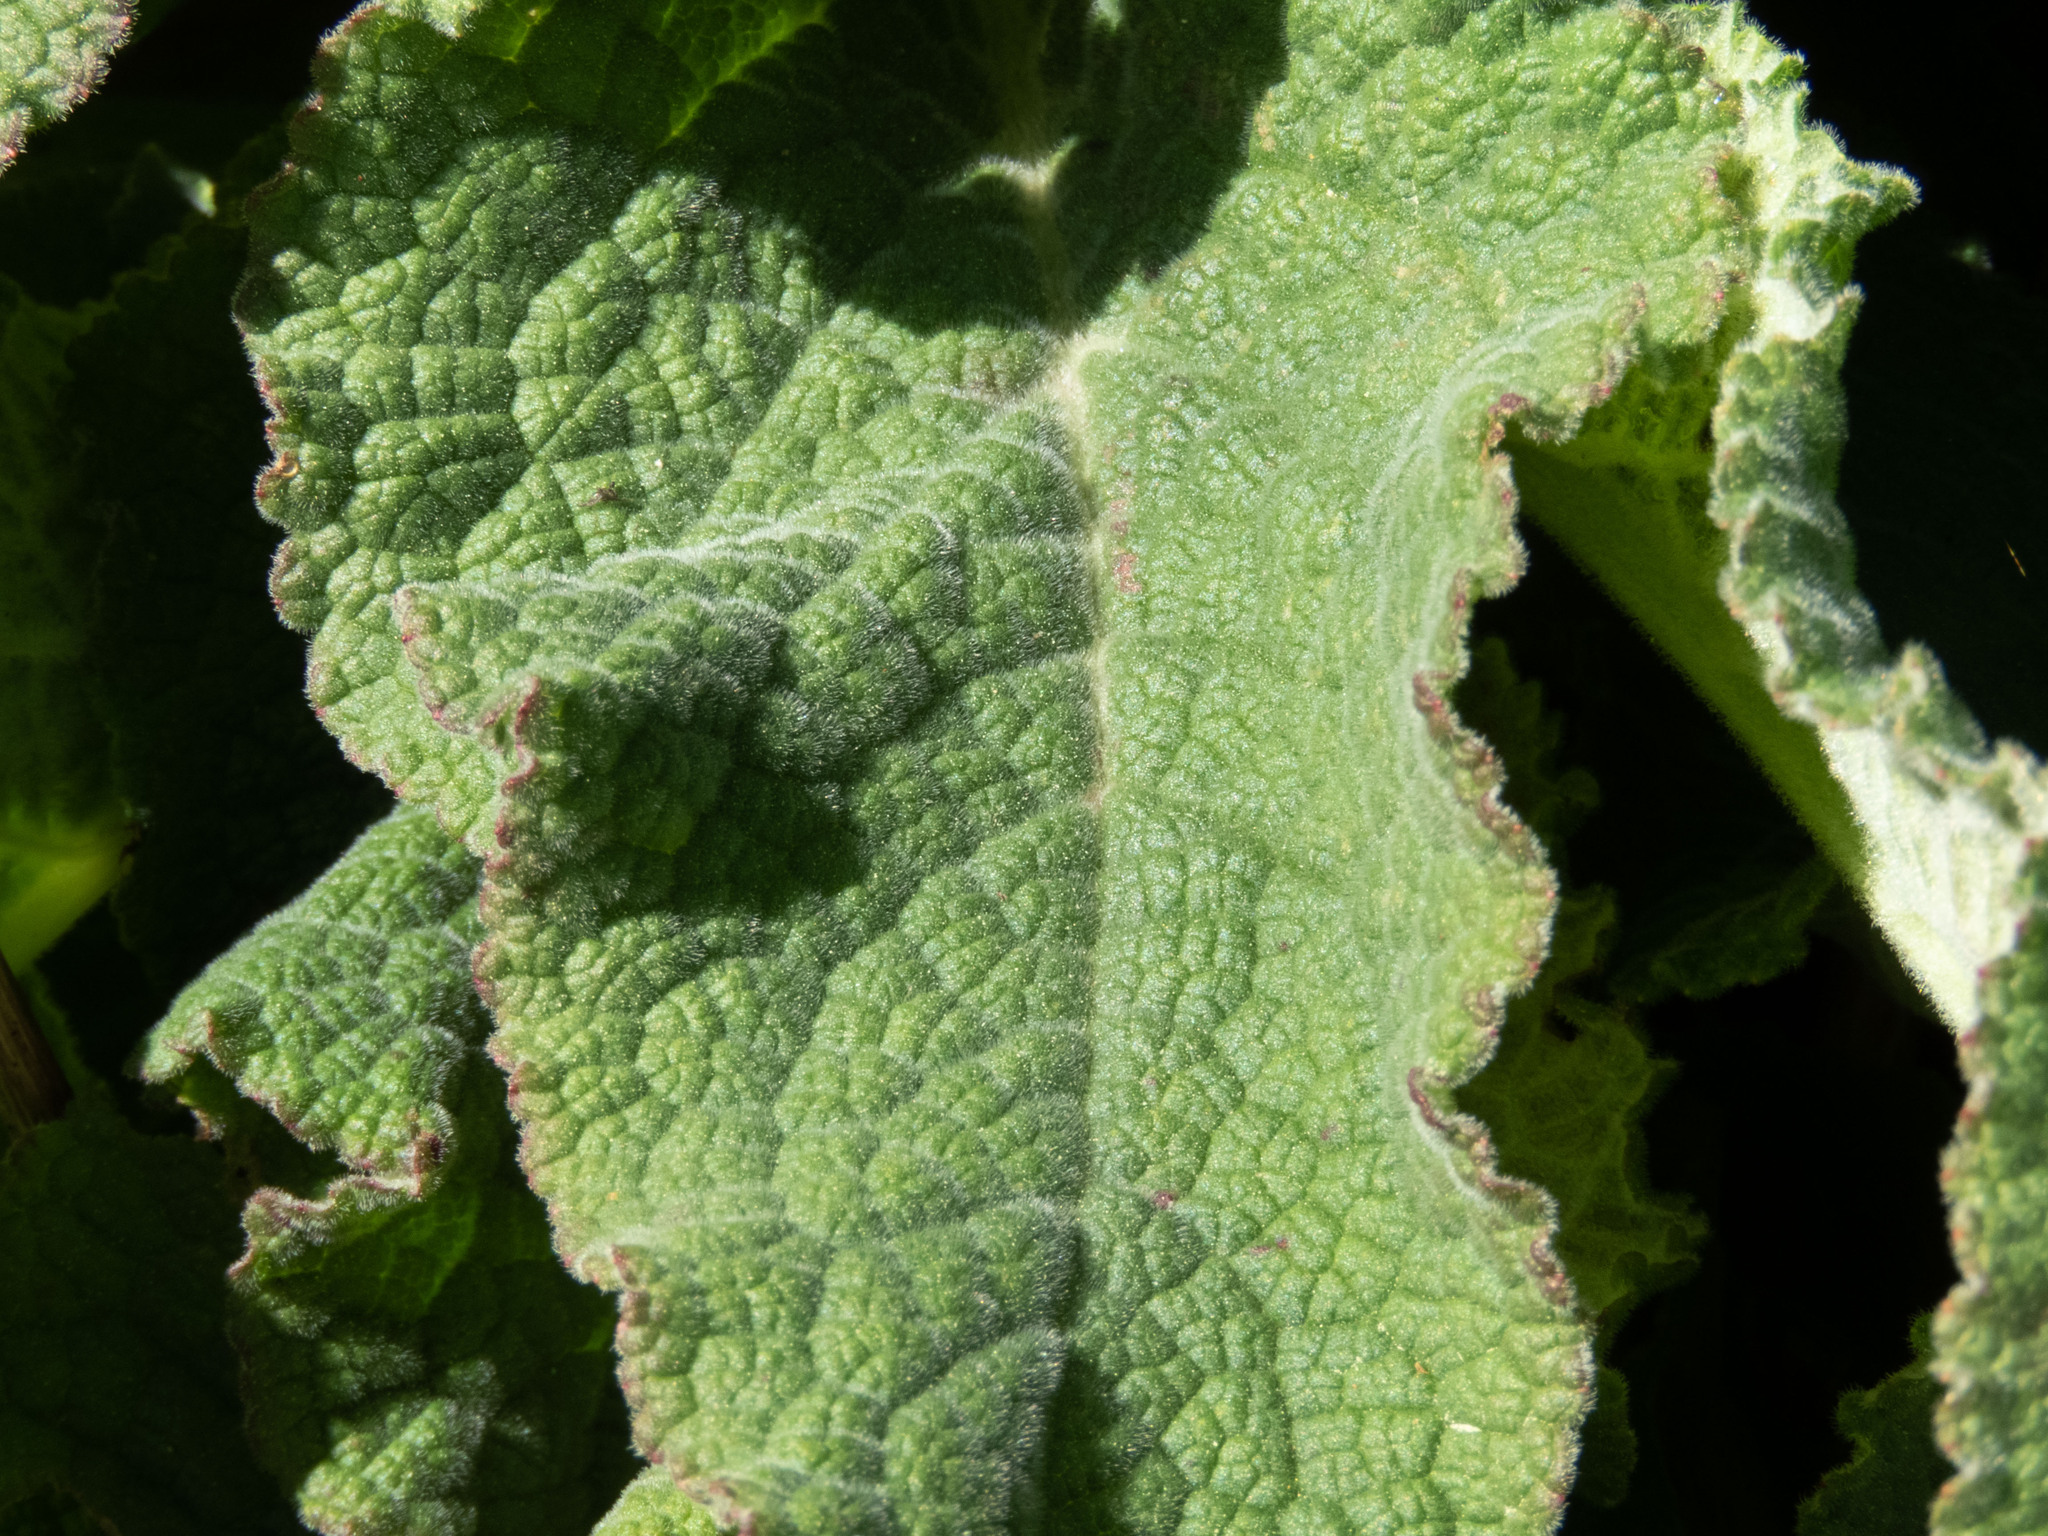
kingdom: Plantae
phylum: Tracheophyta
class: Magnoliopsida
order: Lamiales
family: Plantaginaceae
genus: Digitalis
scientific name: Digitalis purpurea
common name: Foxglove
